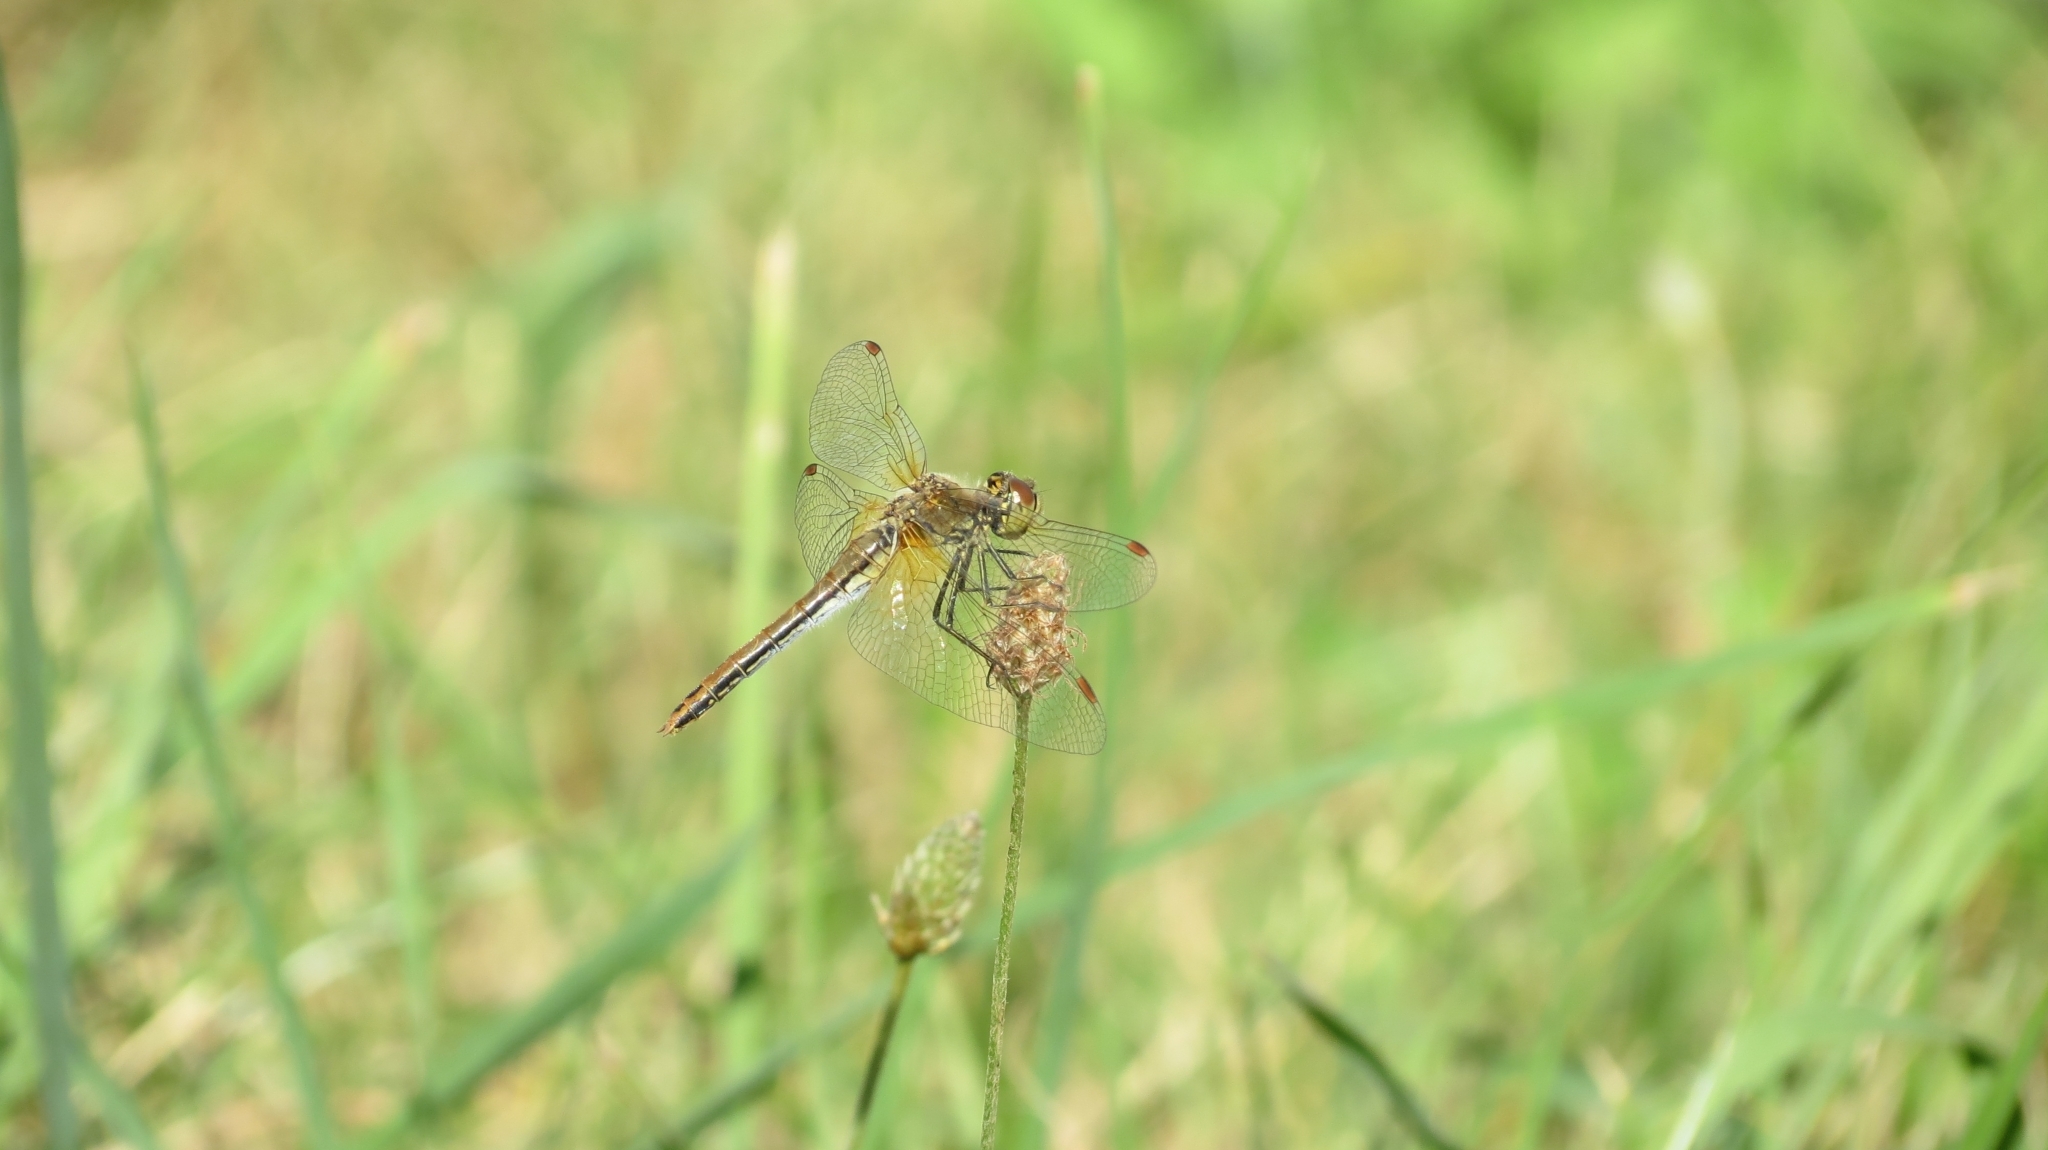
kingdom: Animalia
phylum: Arthropoda
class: Insecta
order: Odonata
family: Libellulidae
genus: Sympetrum
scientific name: Sympetrum flaveolum
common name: Yellow-winged darter
